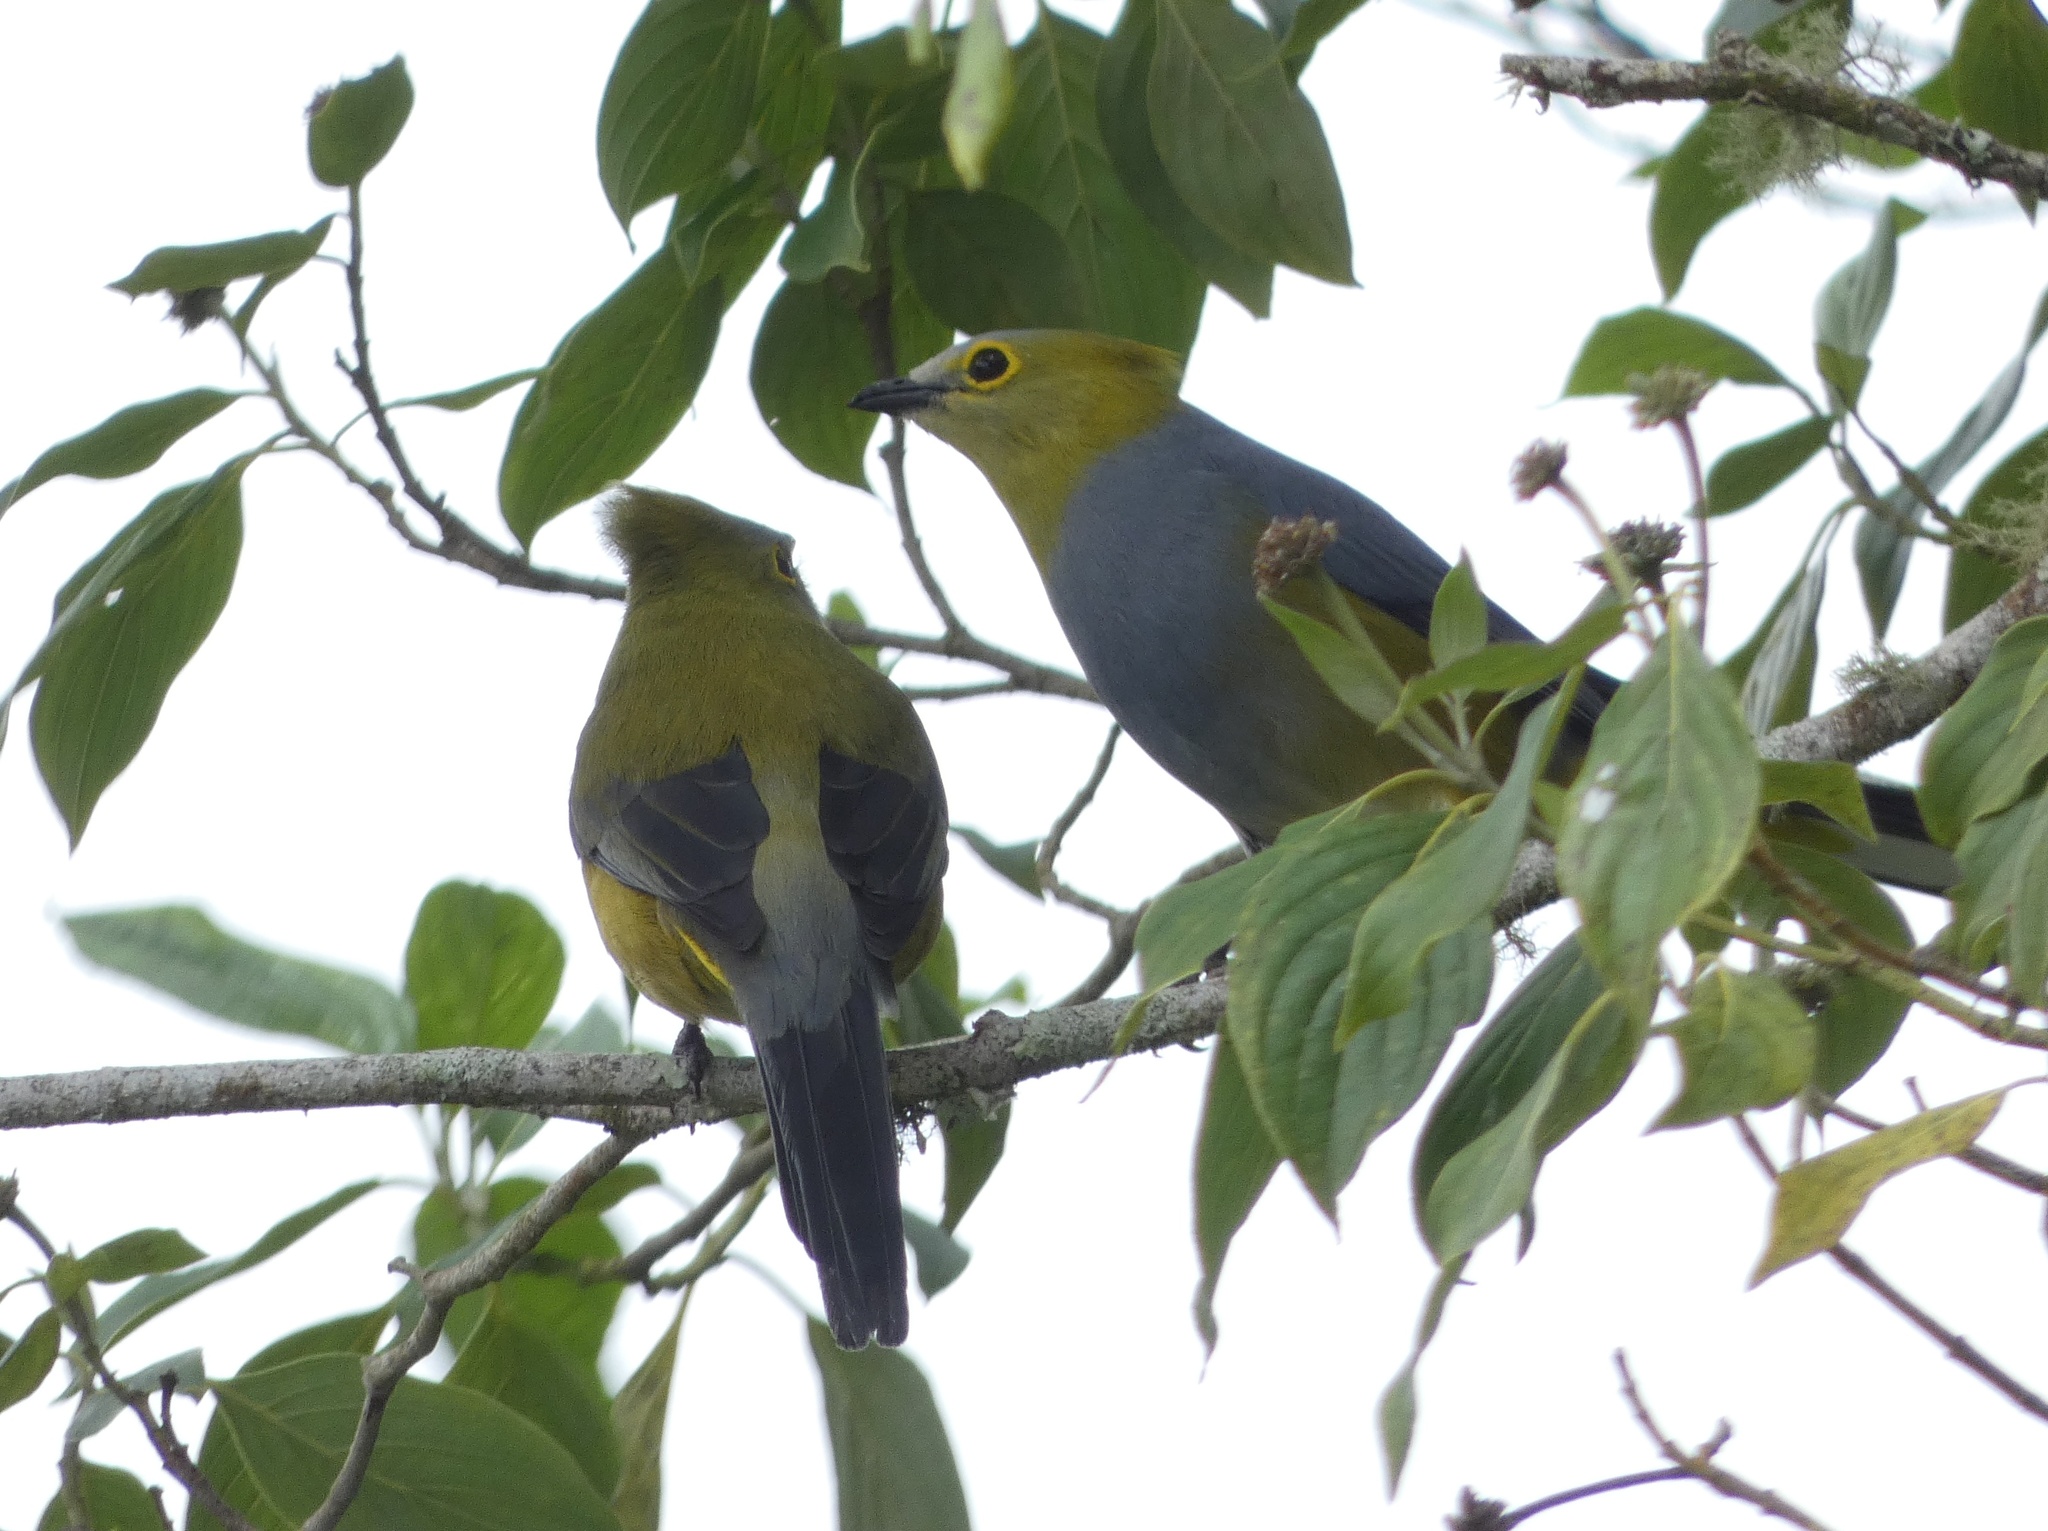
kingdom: Animalia
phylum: Chordata
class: Aves
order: Passeriformes
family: Ptilogonatidae
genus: Ptilogonys
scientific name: Ptilogonys caudatus
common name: Long-tailed silky-flycatcher
